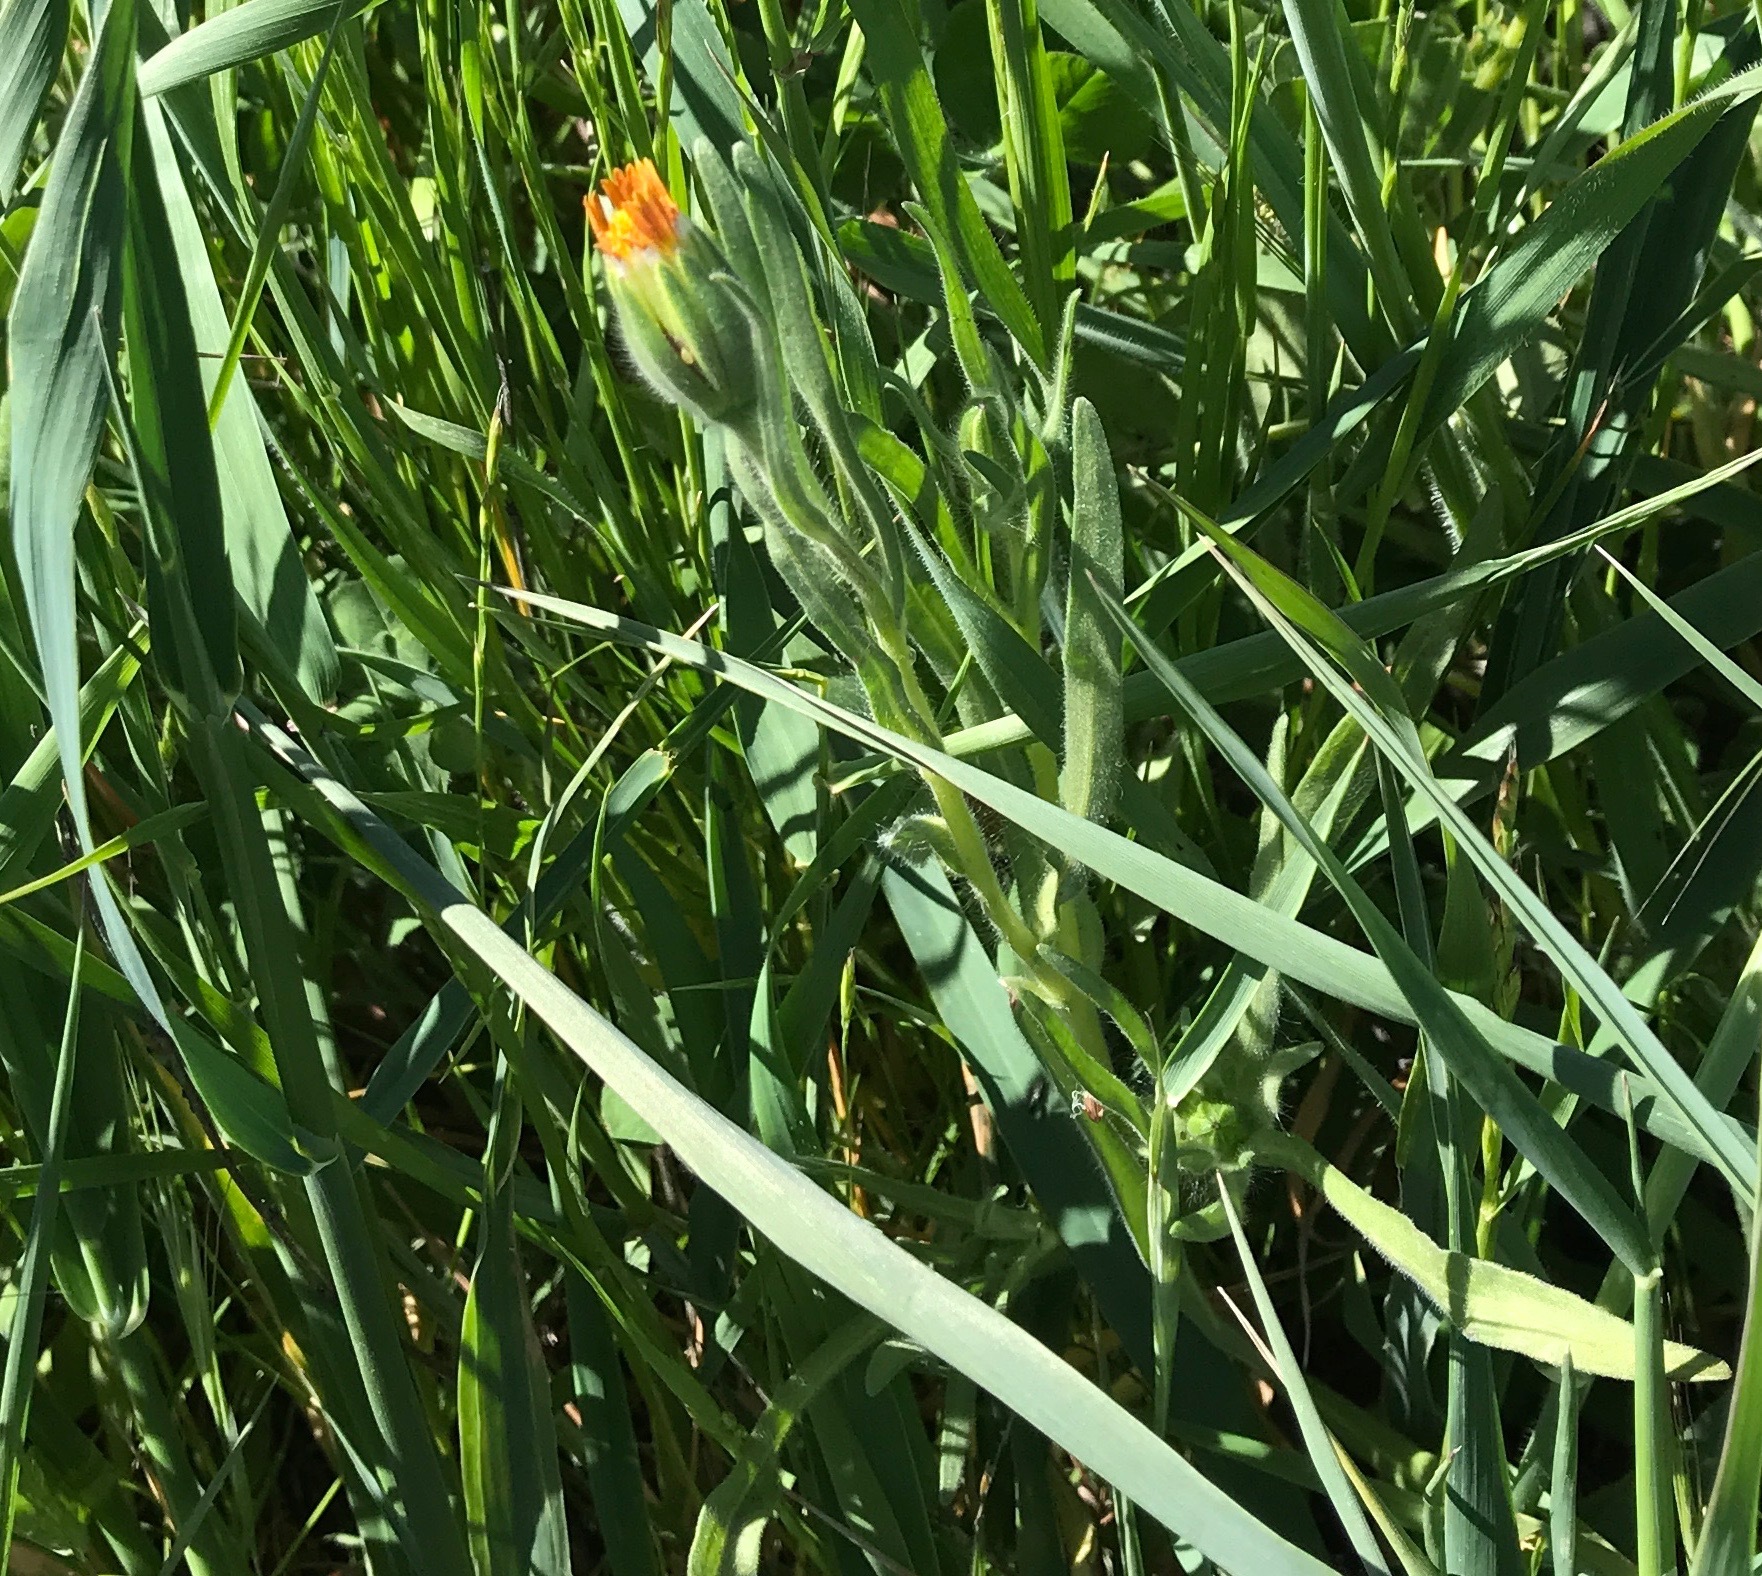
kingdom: Plantae
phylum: Tracheophyta
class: Magnoliopsida
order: Asterales
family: Asteraceae
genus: Achyrachaena
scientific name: Achyrachaena mollis
